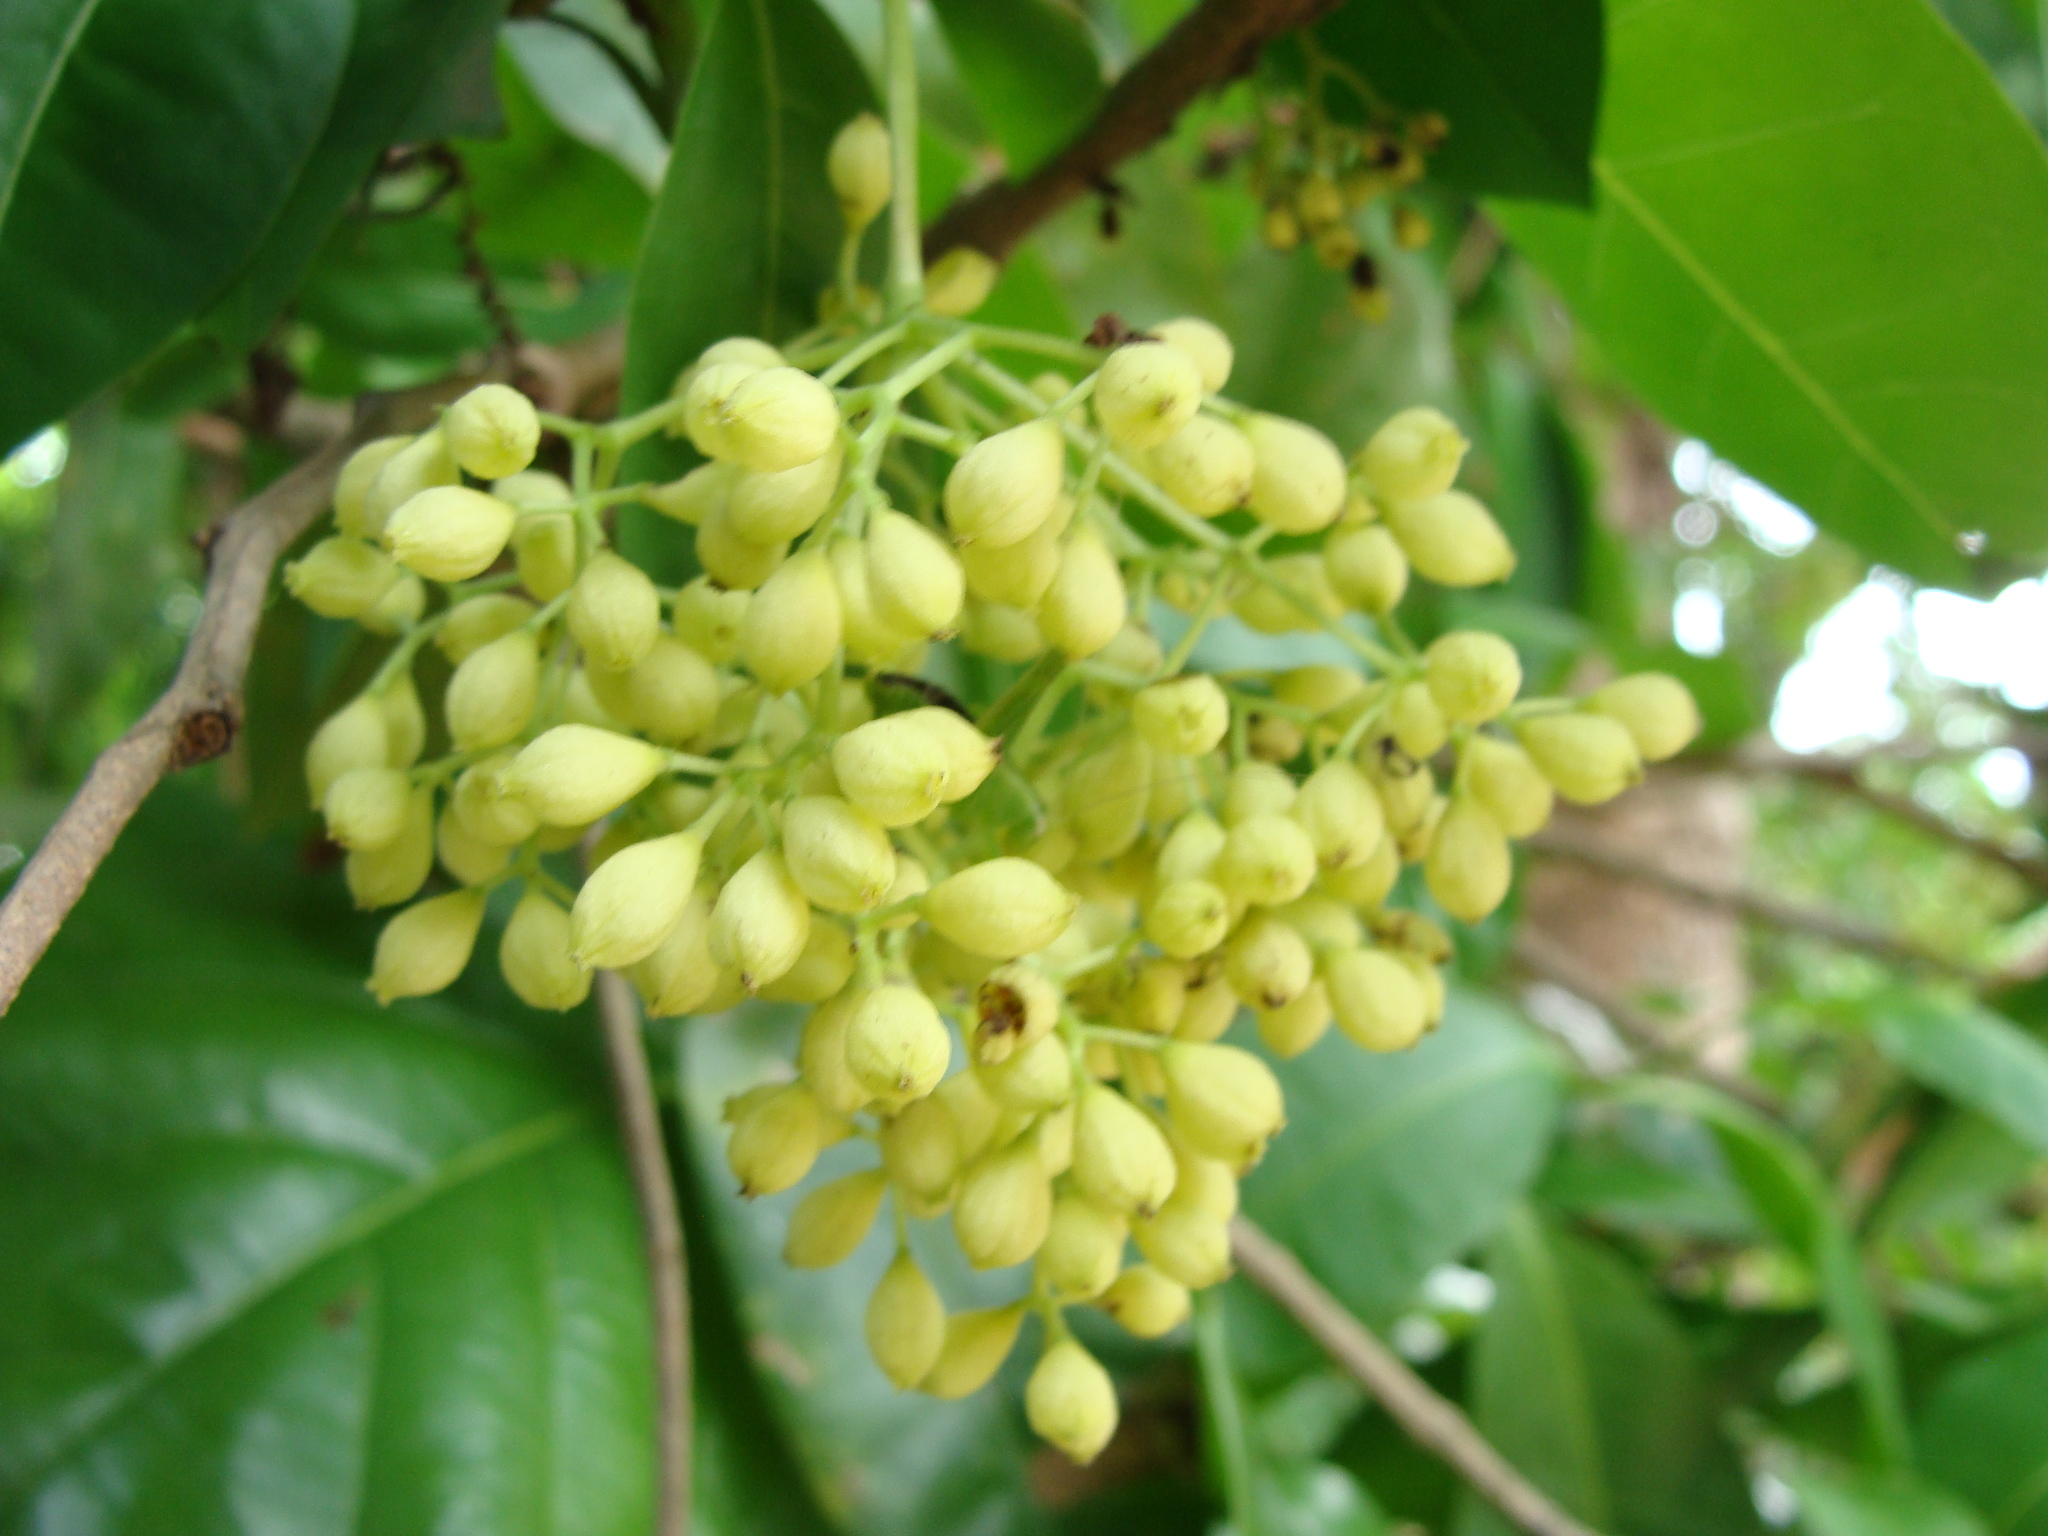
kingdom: Plantae
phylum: Tracheophyta
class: Magnoliopsida
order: Caryophyllales
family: Nyctaginaceae
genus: Neea
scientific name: Neea turbinata
